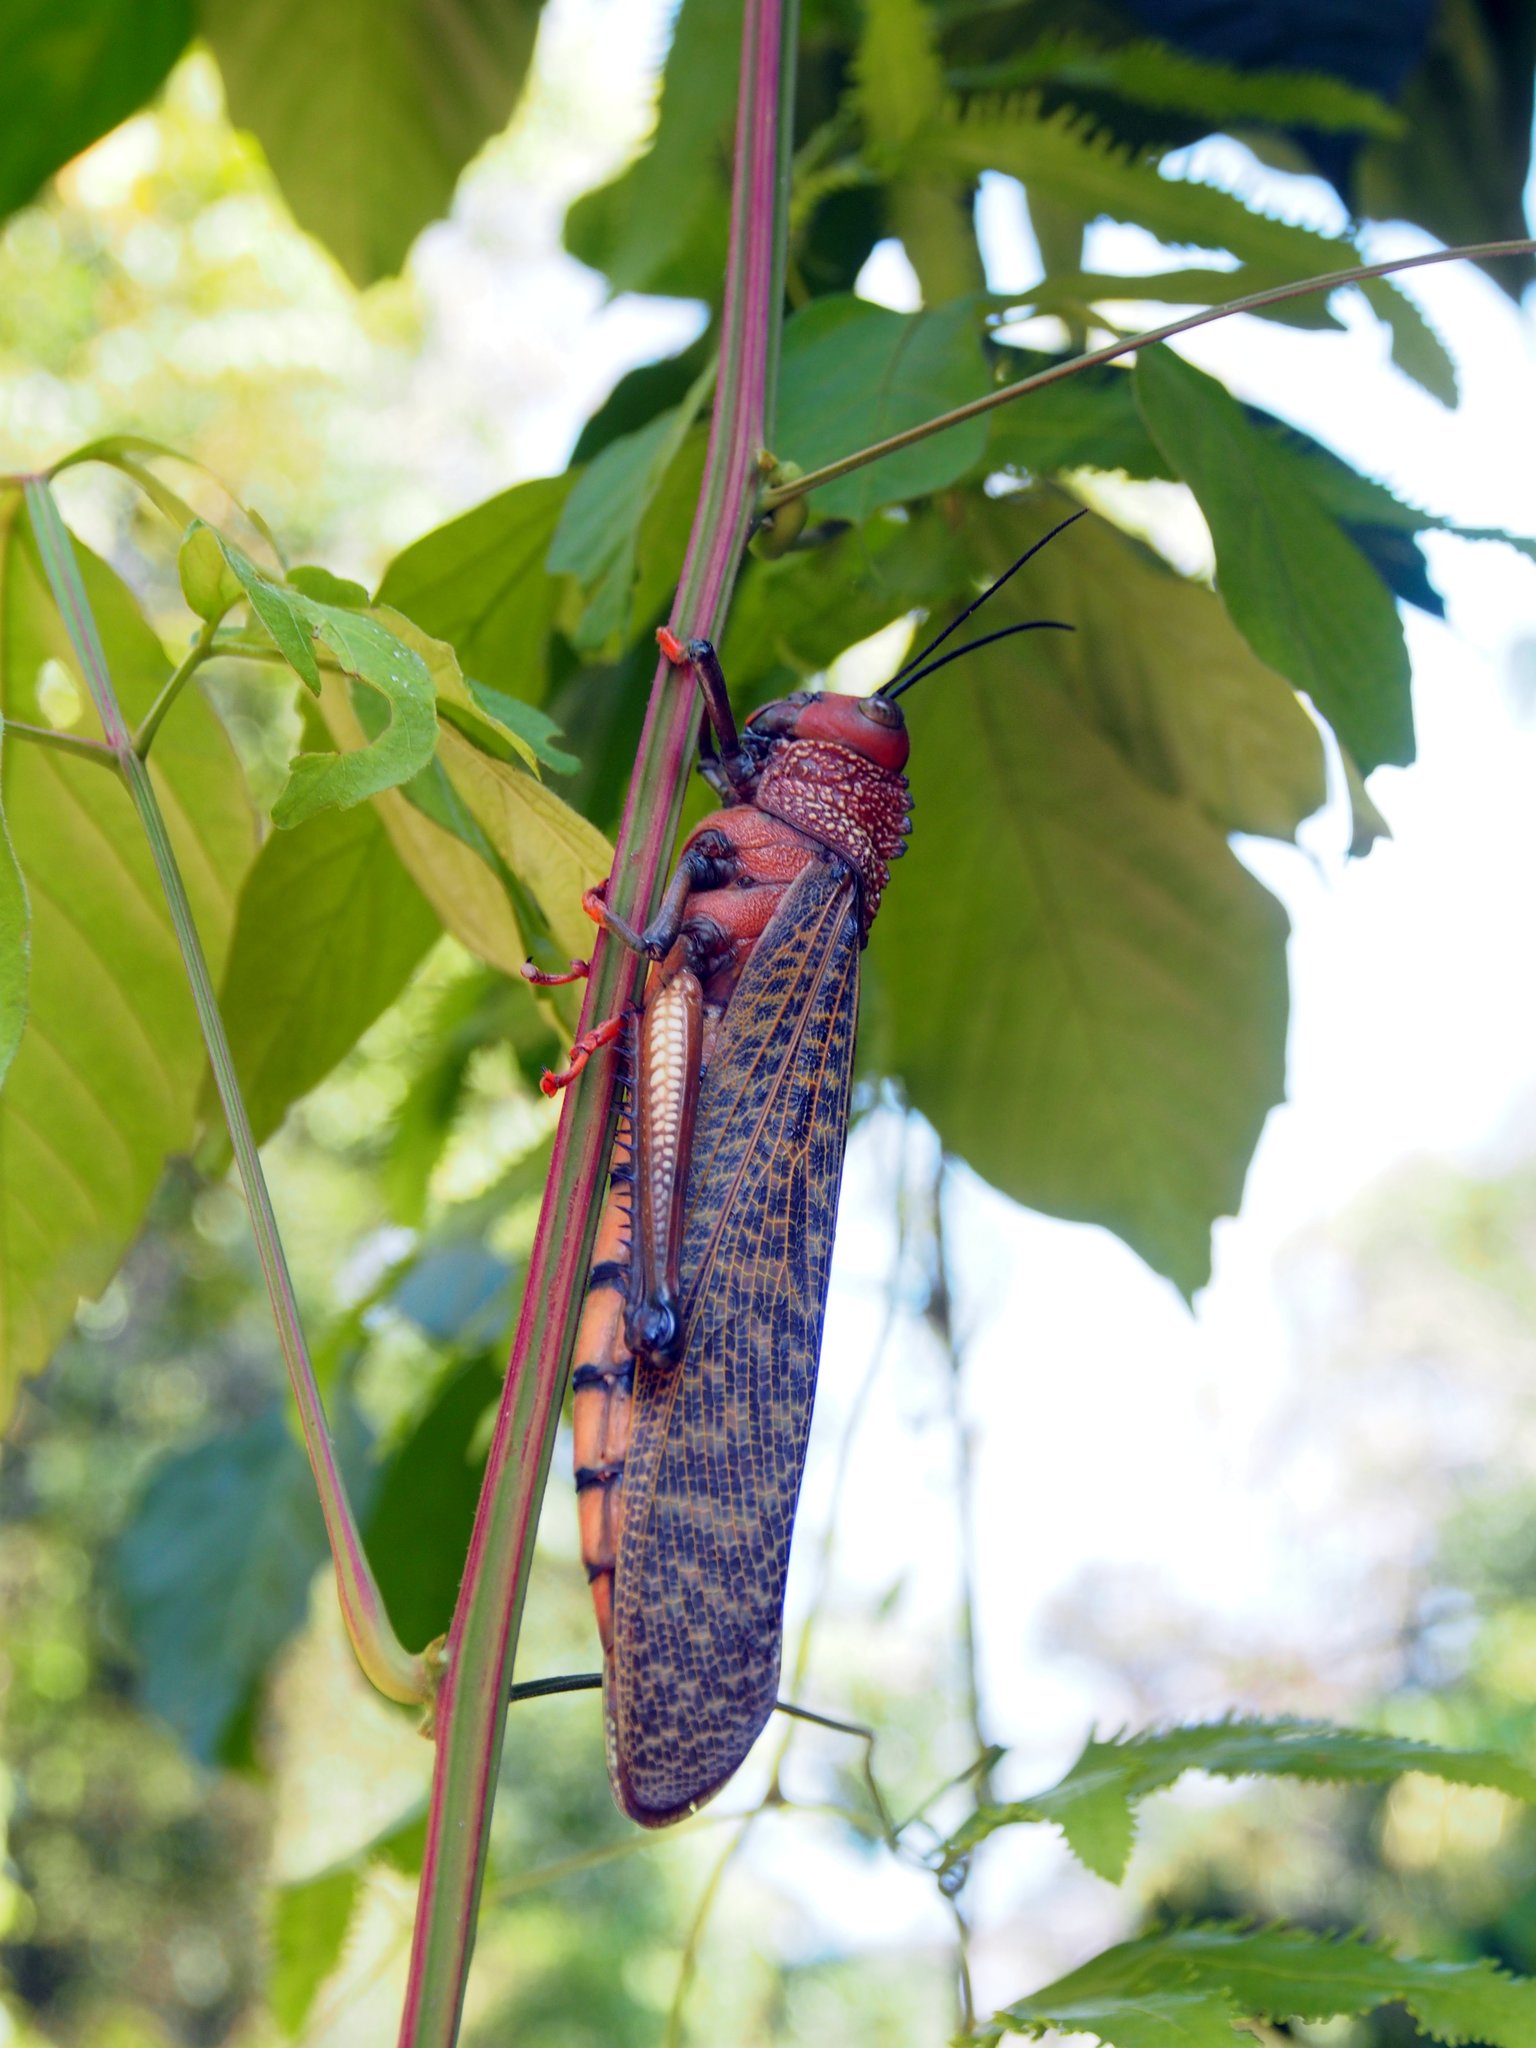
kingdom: Animalia
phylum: Arthropoda
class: Insecta
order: Orthoptera
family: Romaleidae
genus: Tropidacris
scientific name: Tropidacris cristata
